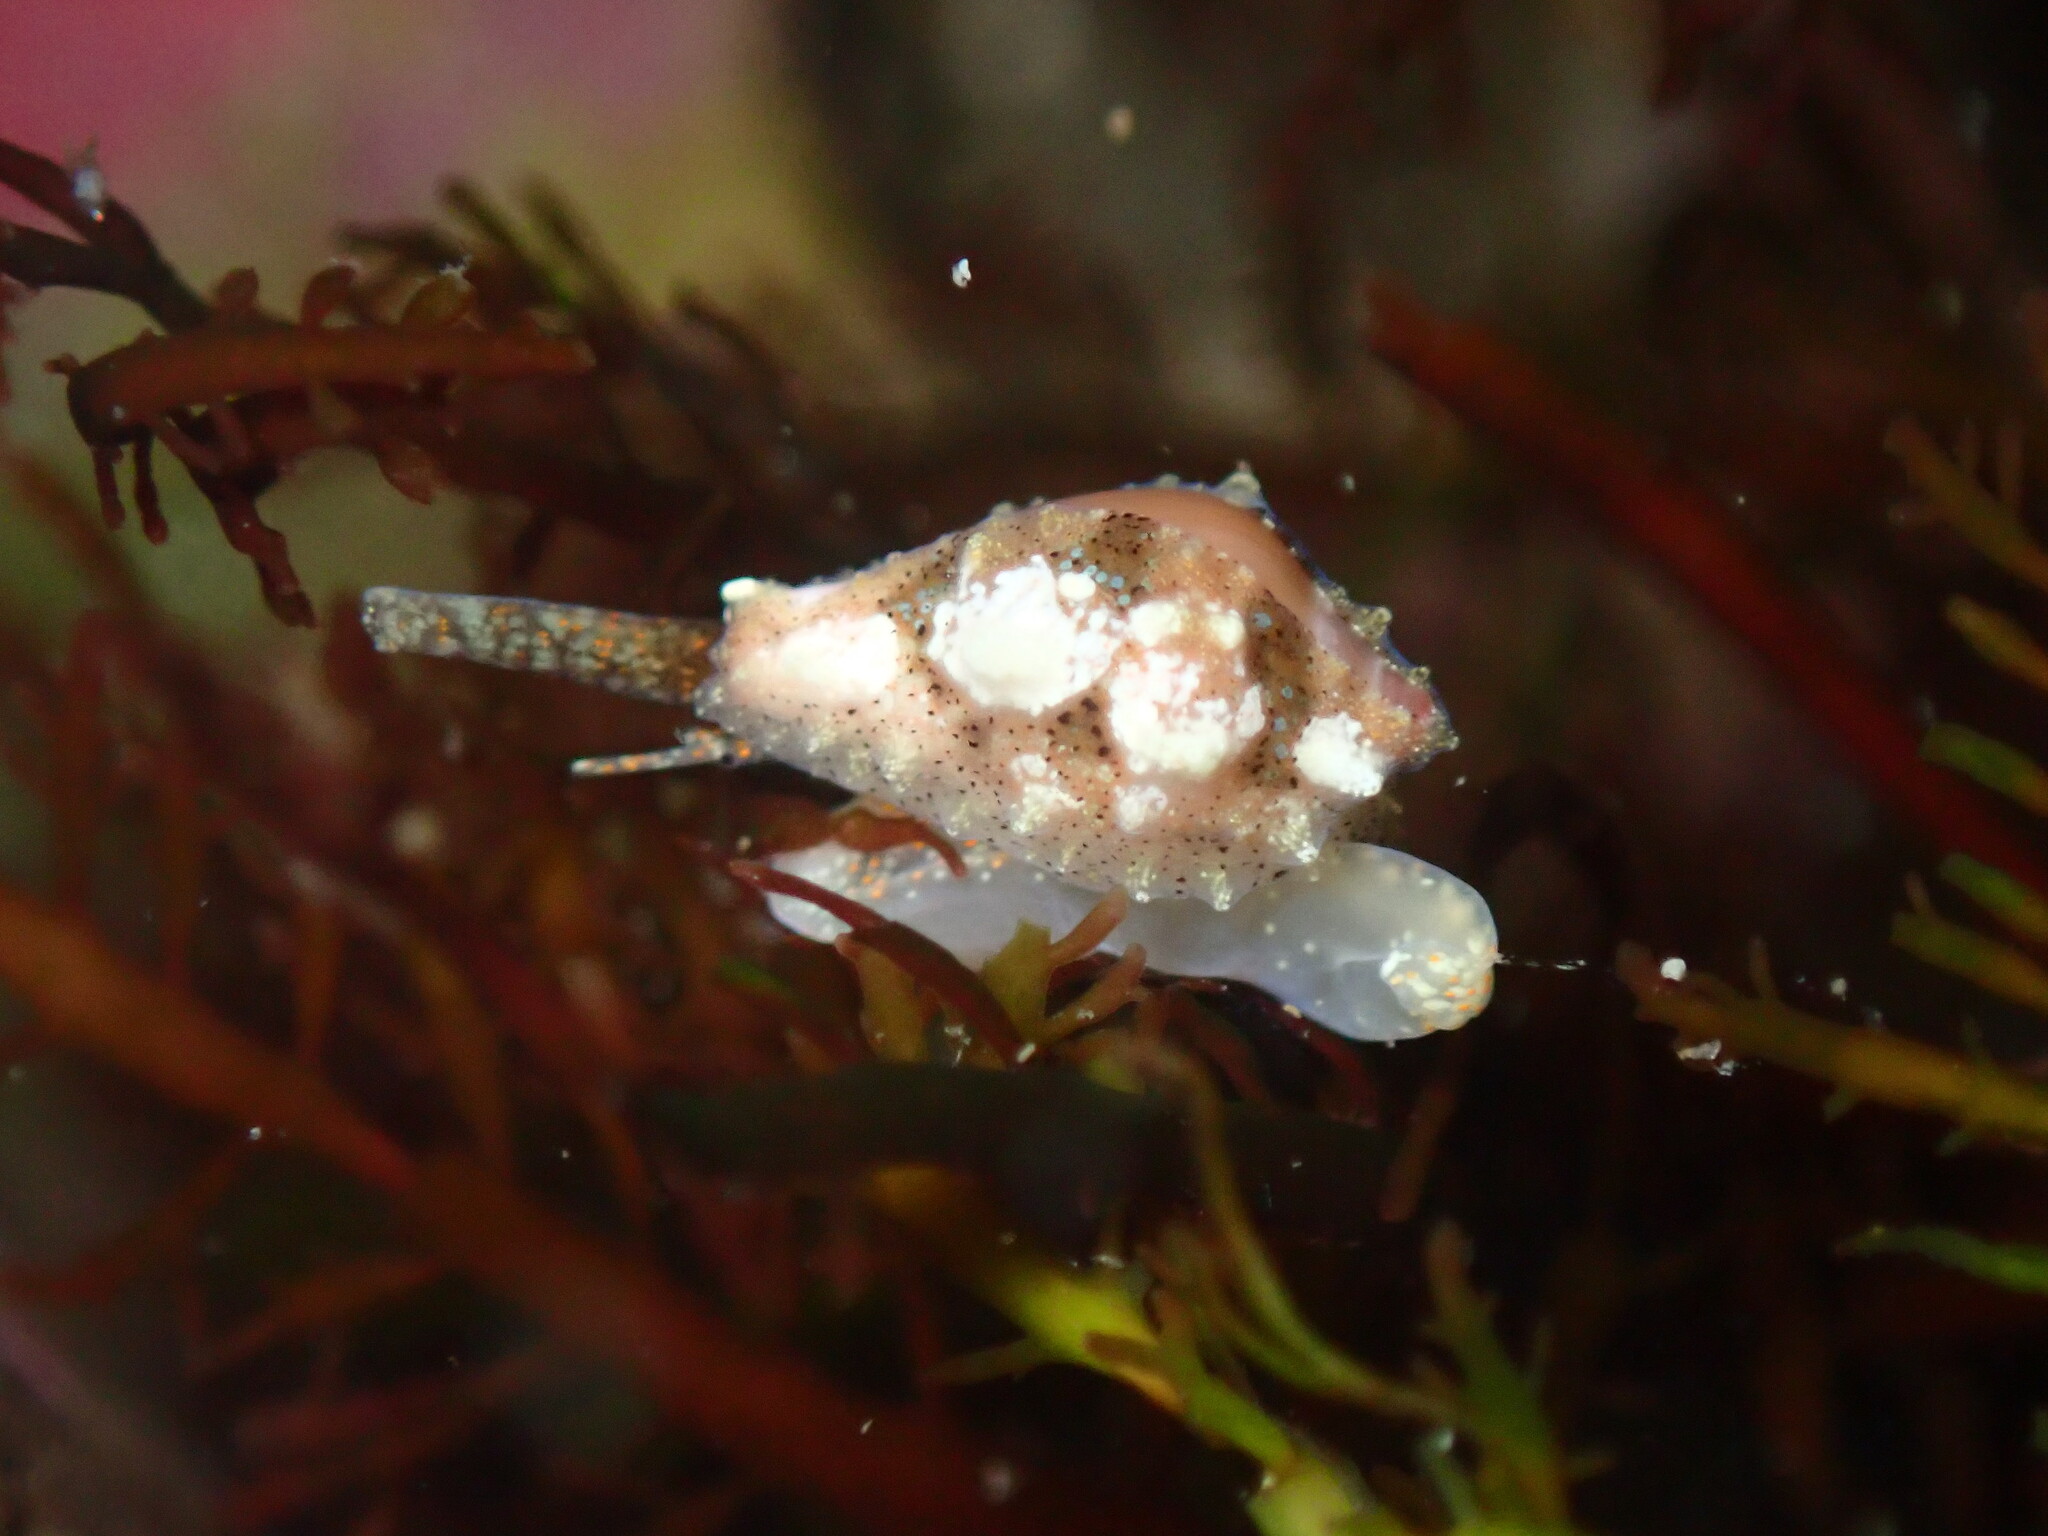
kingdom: Animalia
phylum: Mollusca
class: Gastropoda
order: Littorinimorpha
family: Eratoidae
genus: Hespererato
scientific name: Hespererato vitellina
